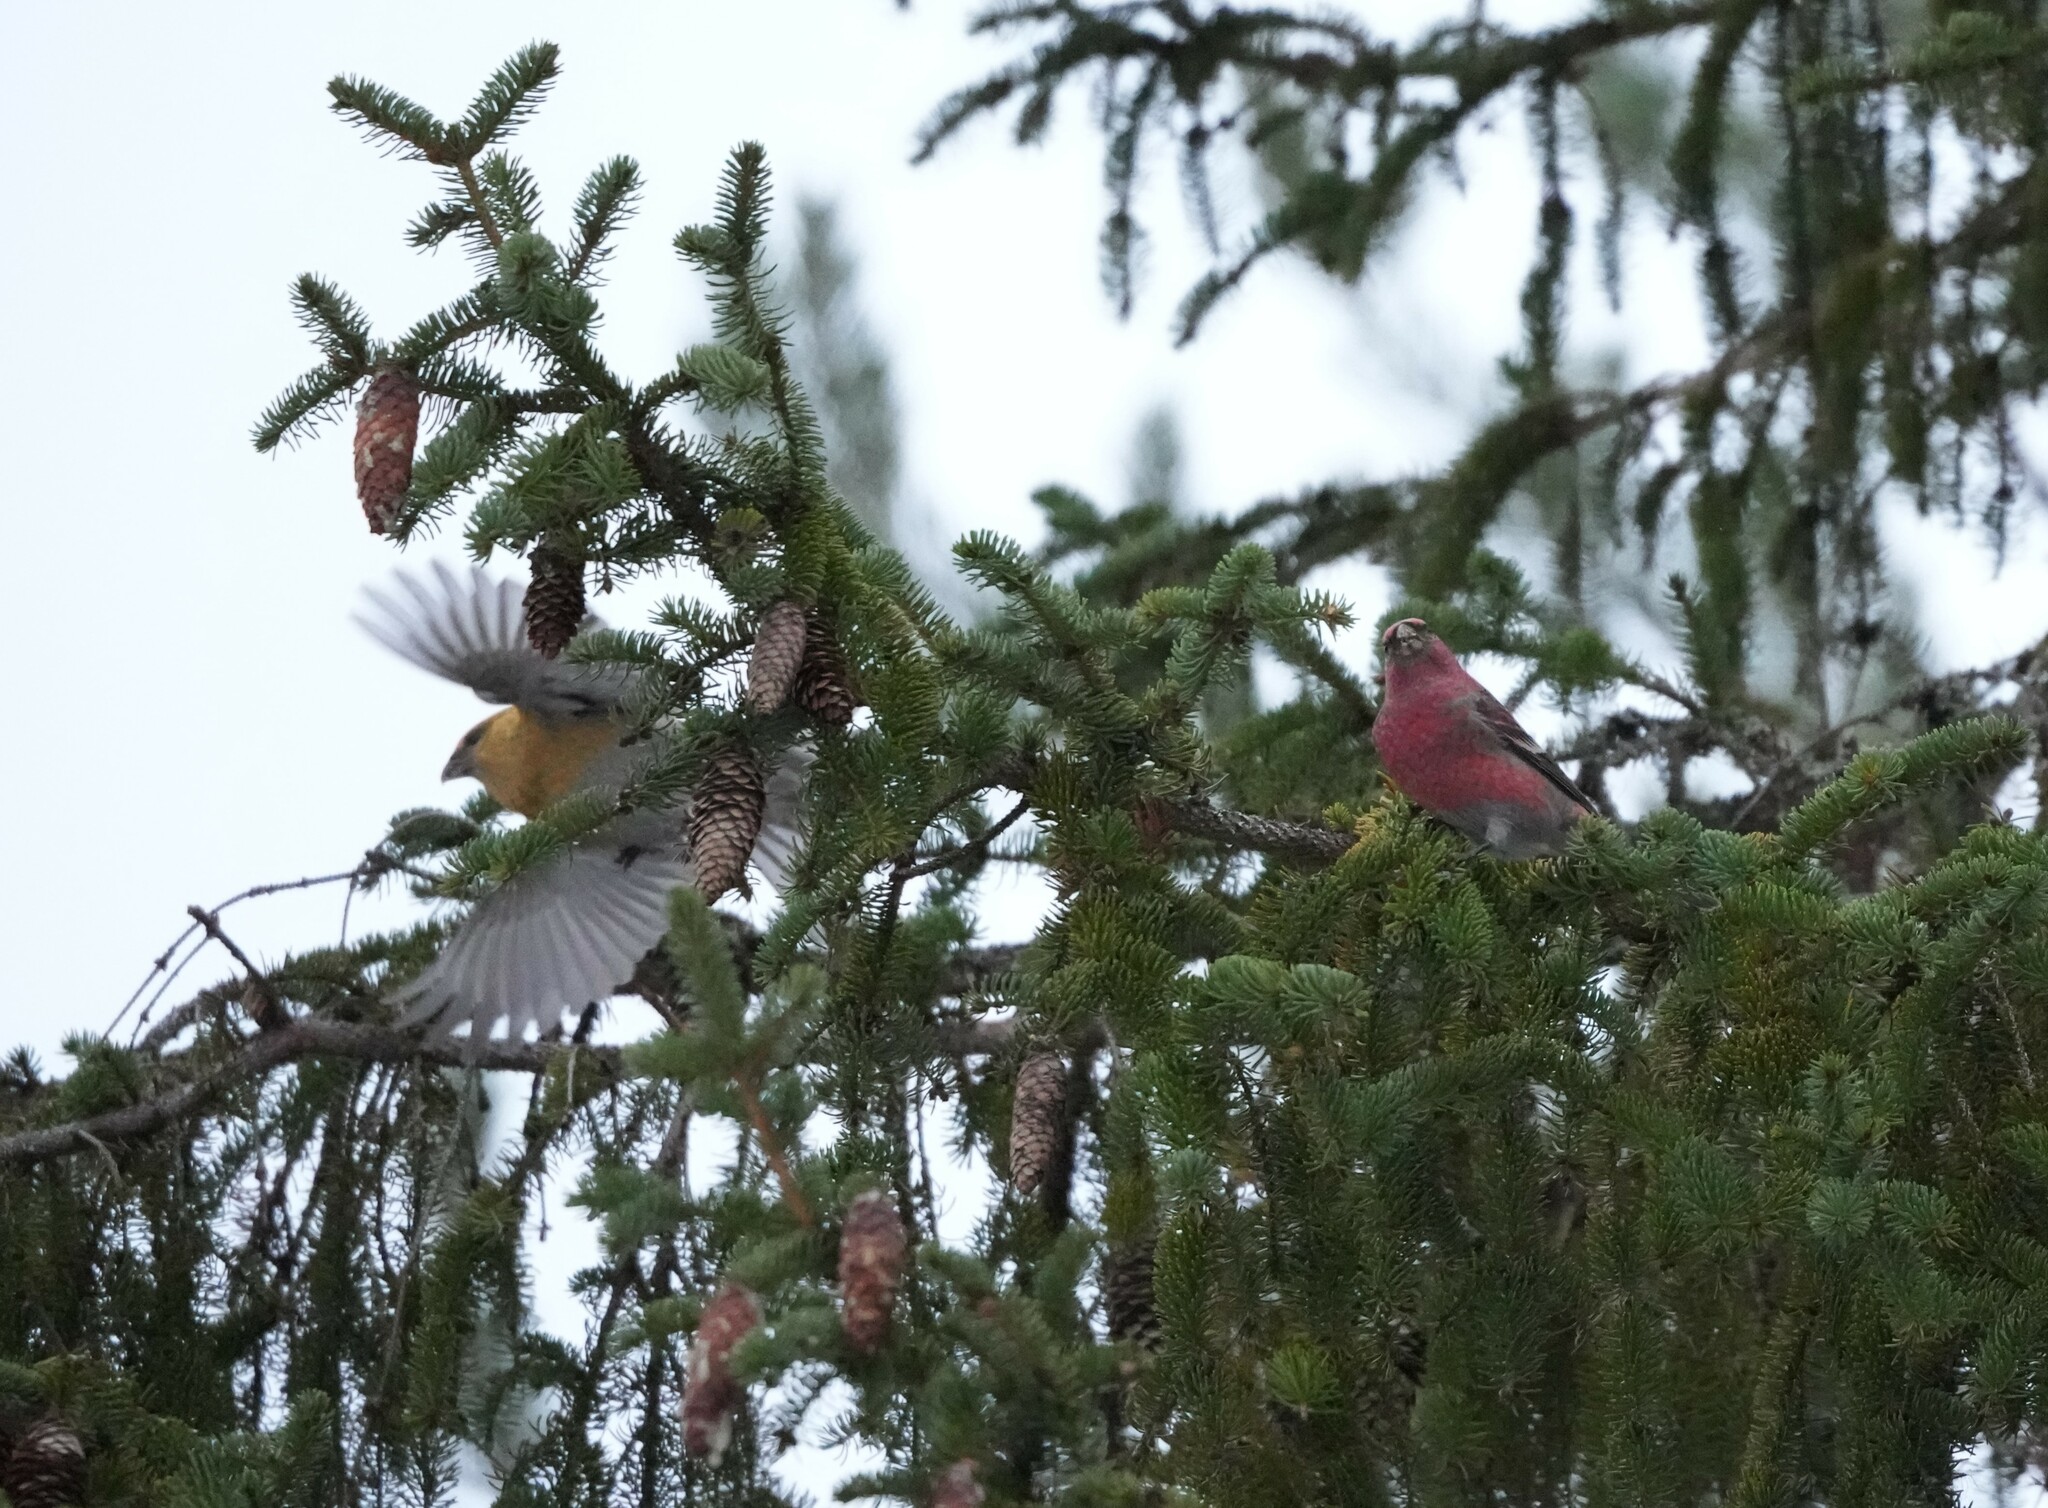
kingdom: Animalia
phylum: Chordata
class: Aves
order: Passeriformes
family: Fringillidae
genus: Pinicola
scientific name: Pinicola enucleator
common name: Pine grosbeak
